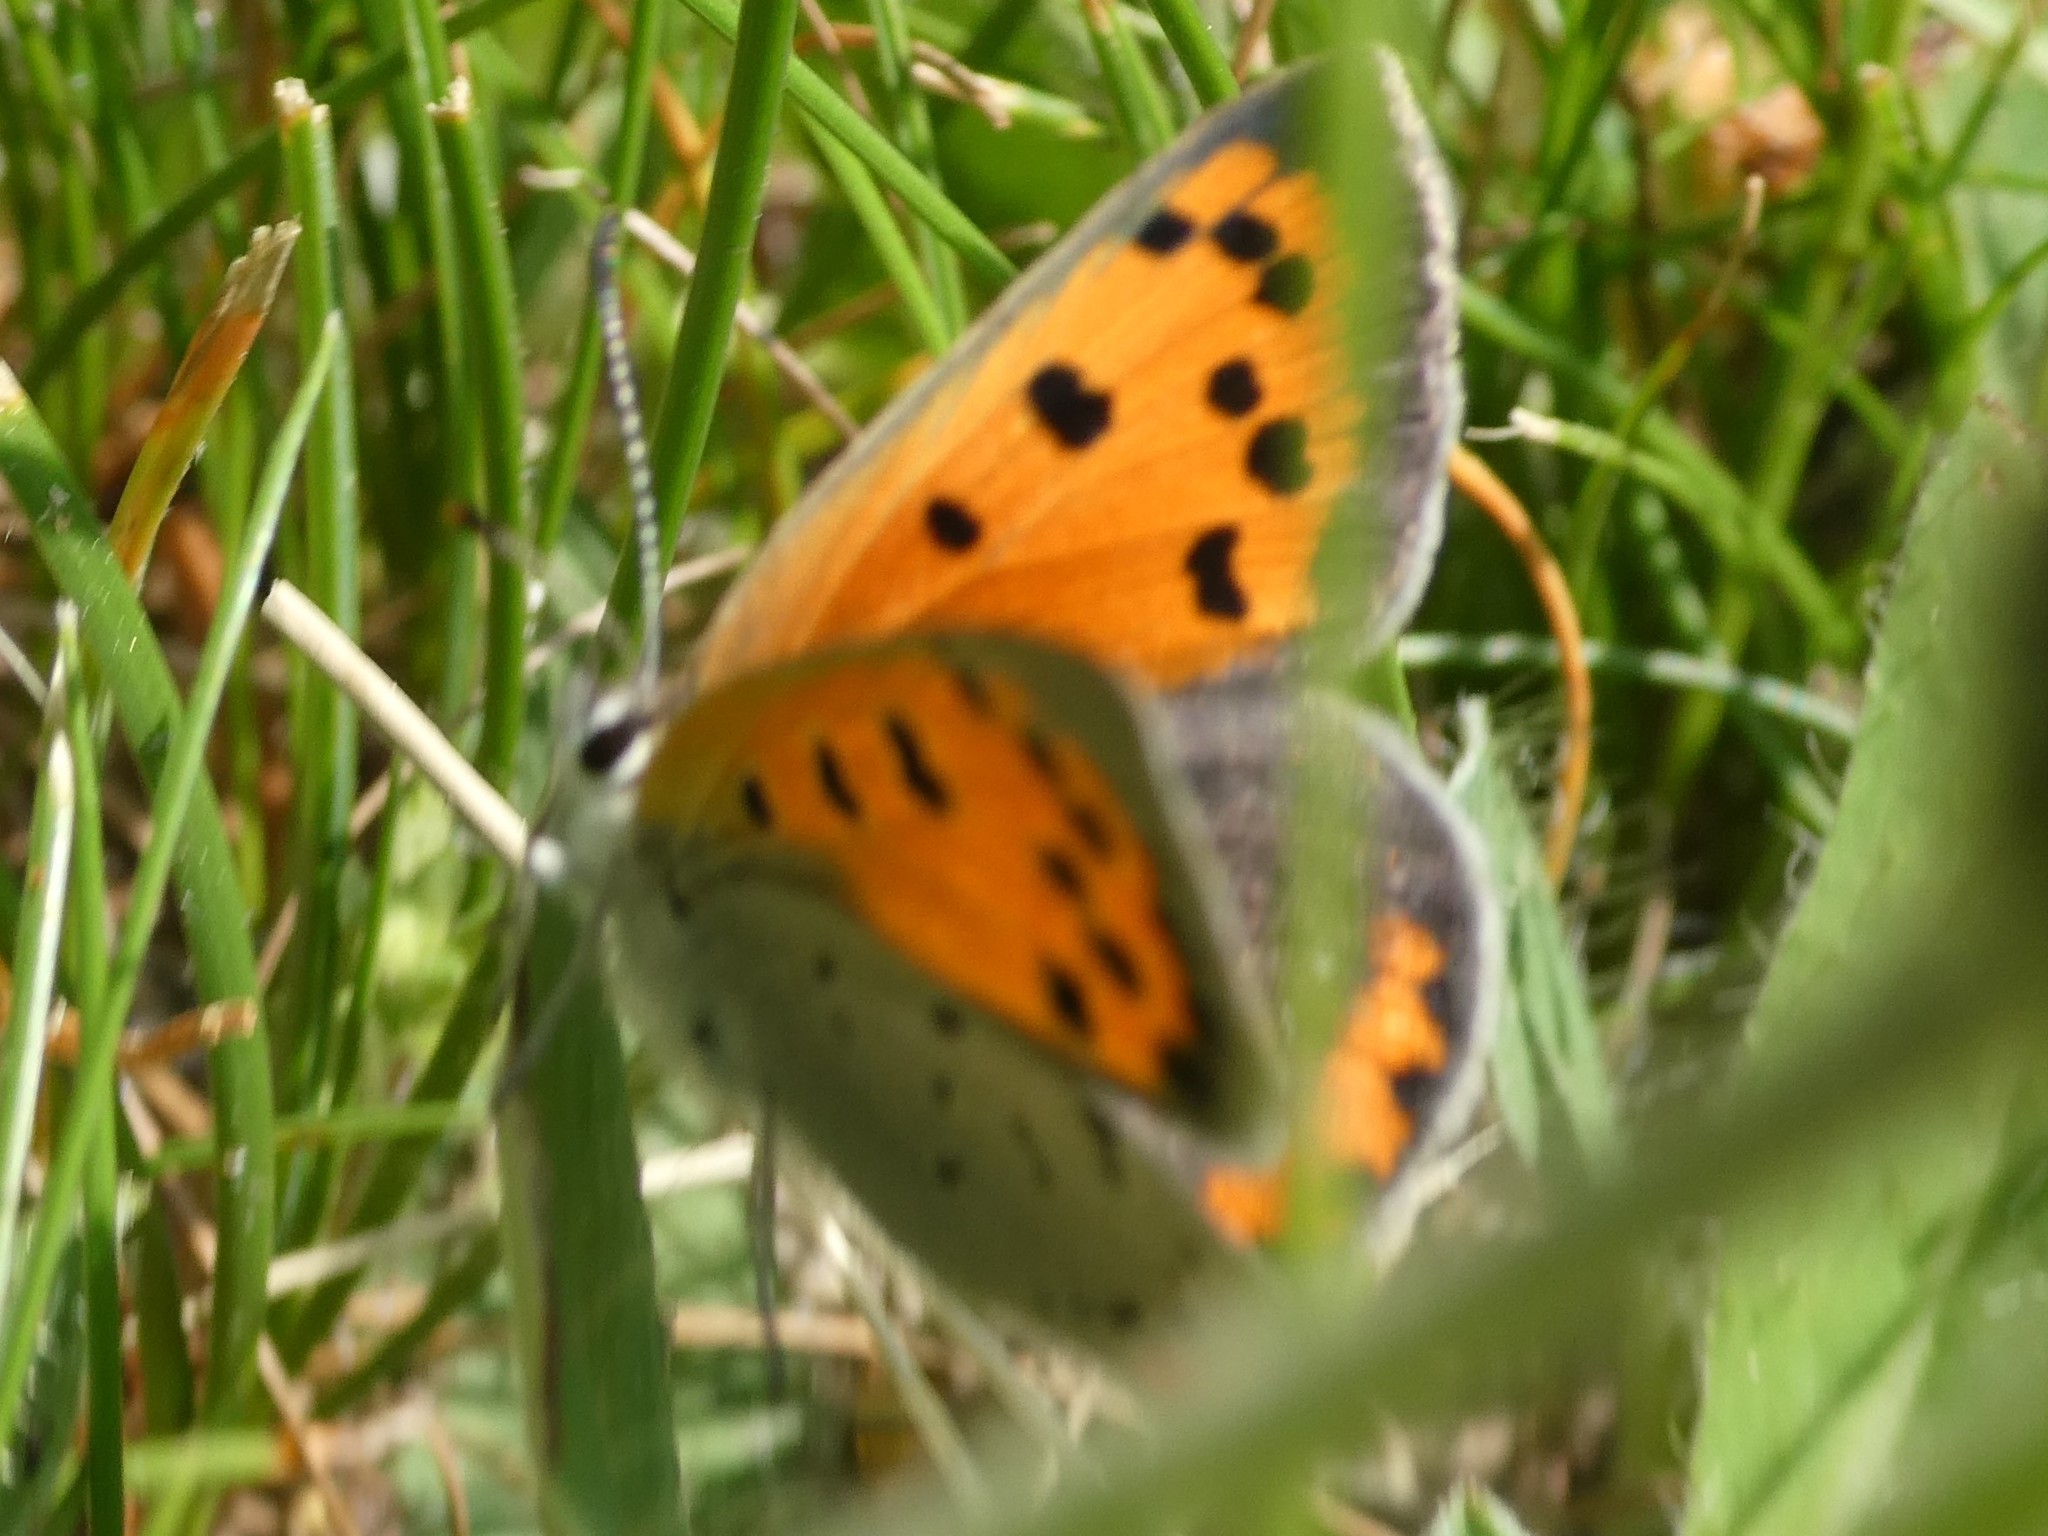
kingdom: Animalia
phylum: Arthropoda
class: Insecta
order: Lepidoptera
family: Lycaenidae
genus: Lycaena
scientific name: Lycaena hypophlaeas
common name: American copper
